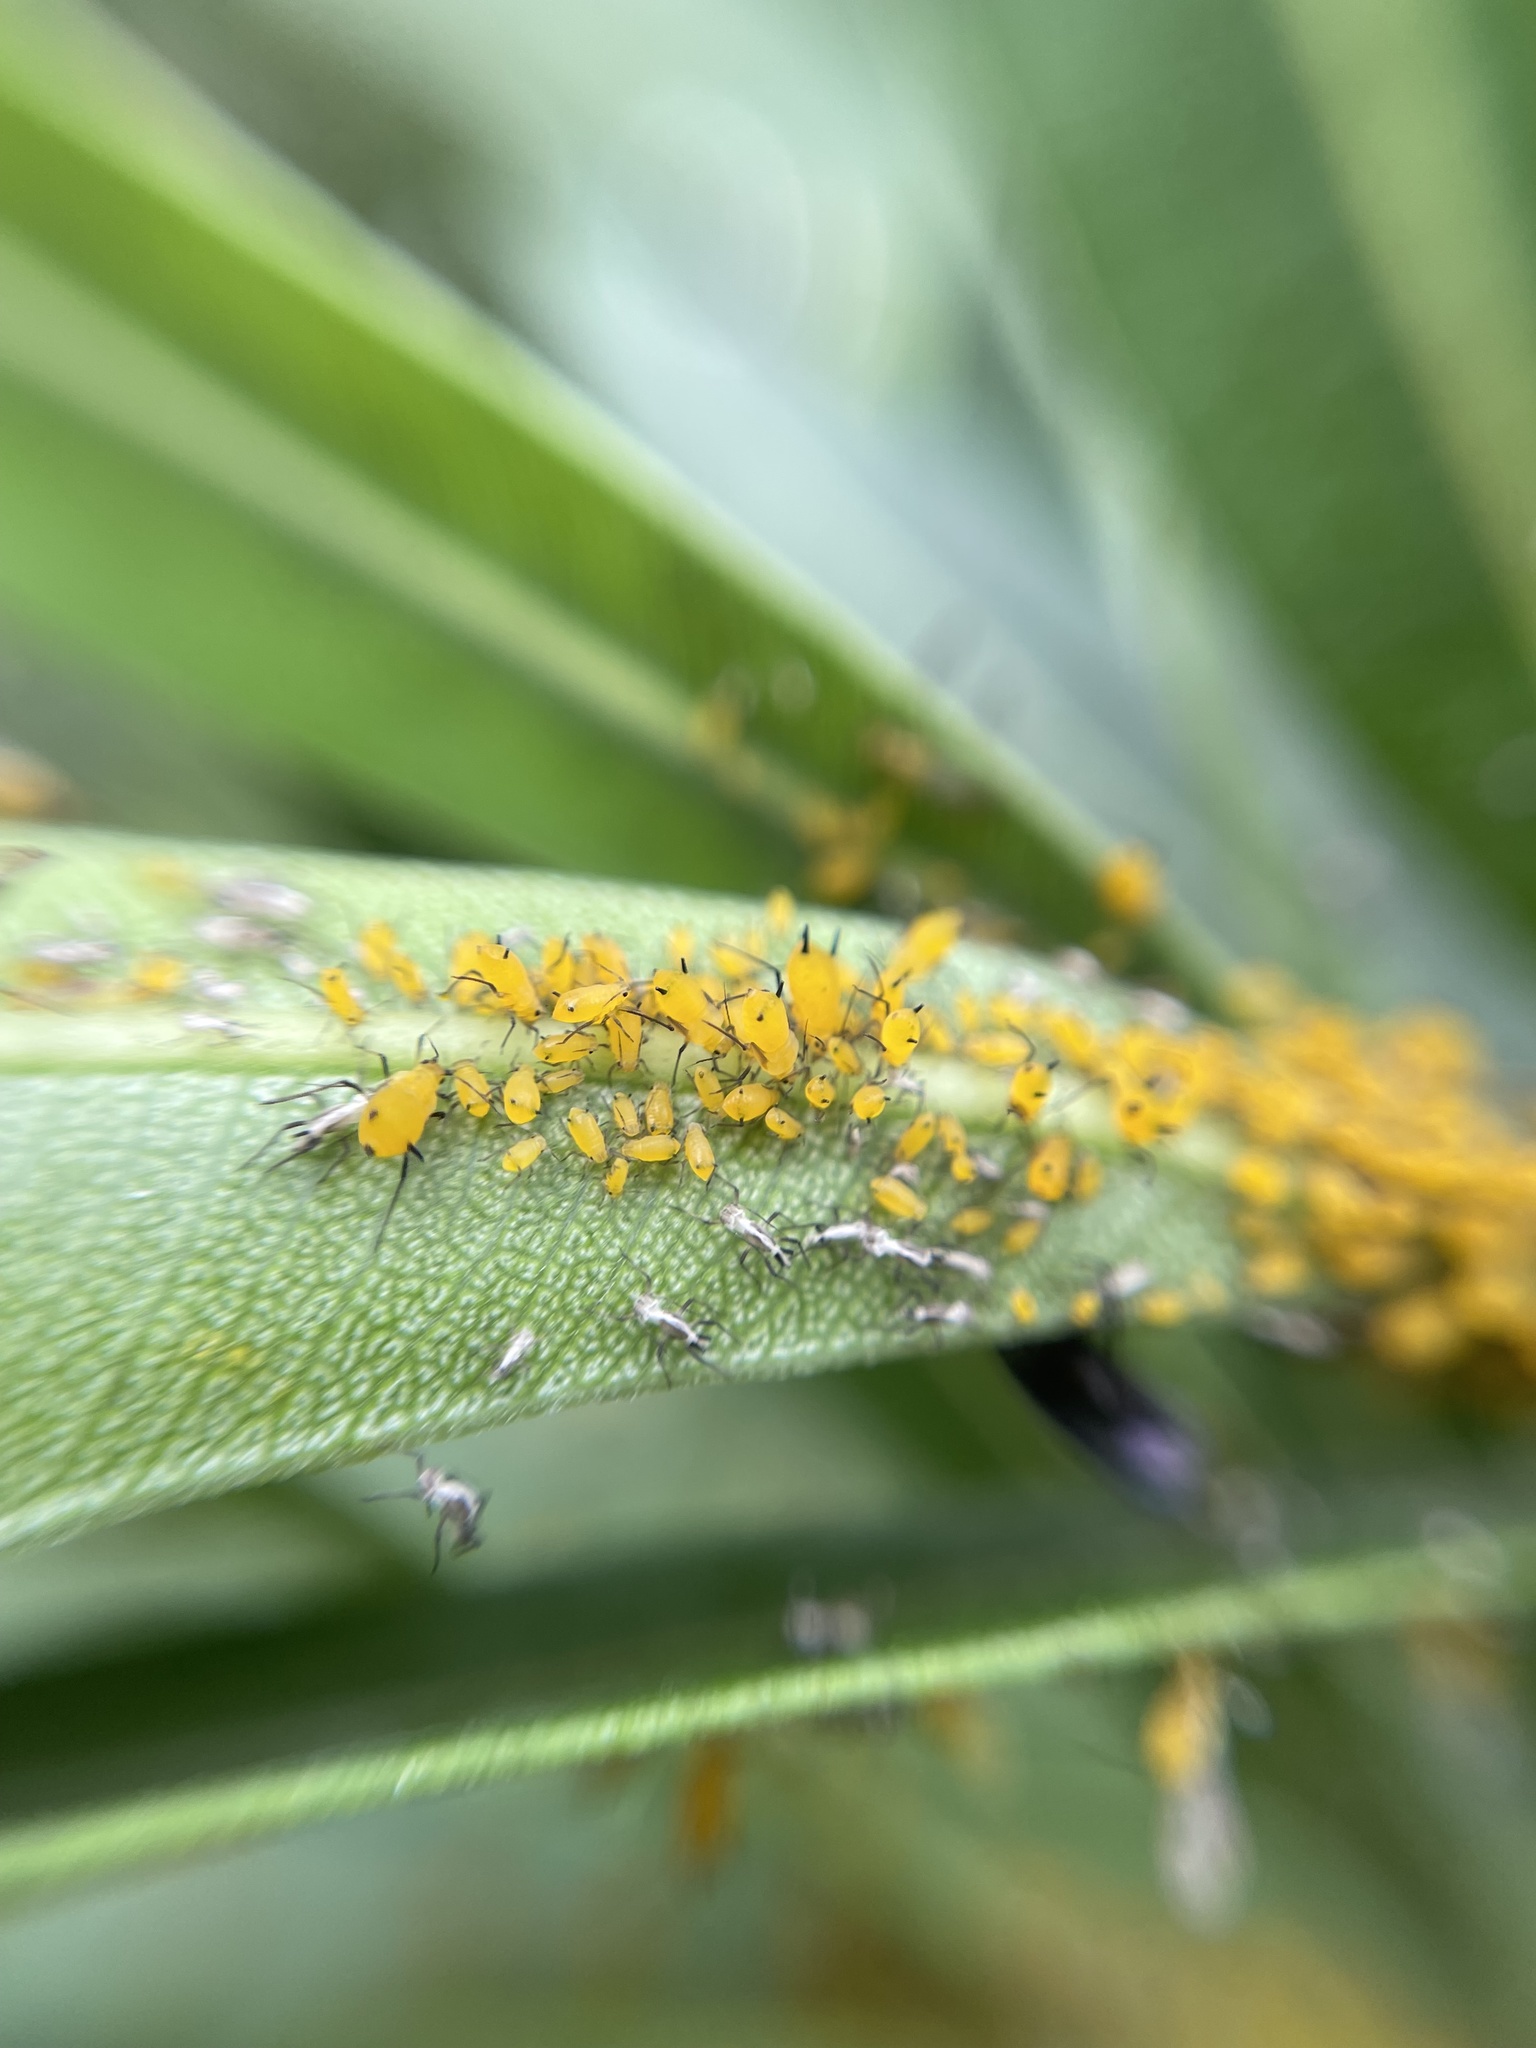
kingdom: Animalia
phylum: Arthropoda
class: Insecta
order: Hemiptera
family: Aphididae
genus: Aphis
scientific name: Aphis nerii
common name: Oleander aphid
